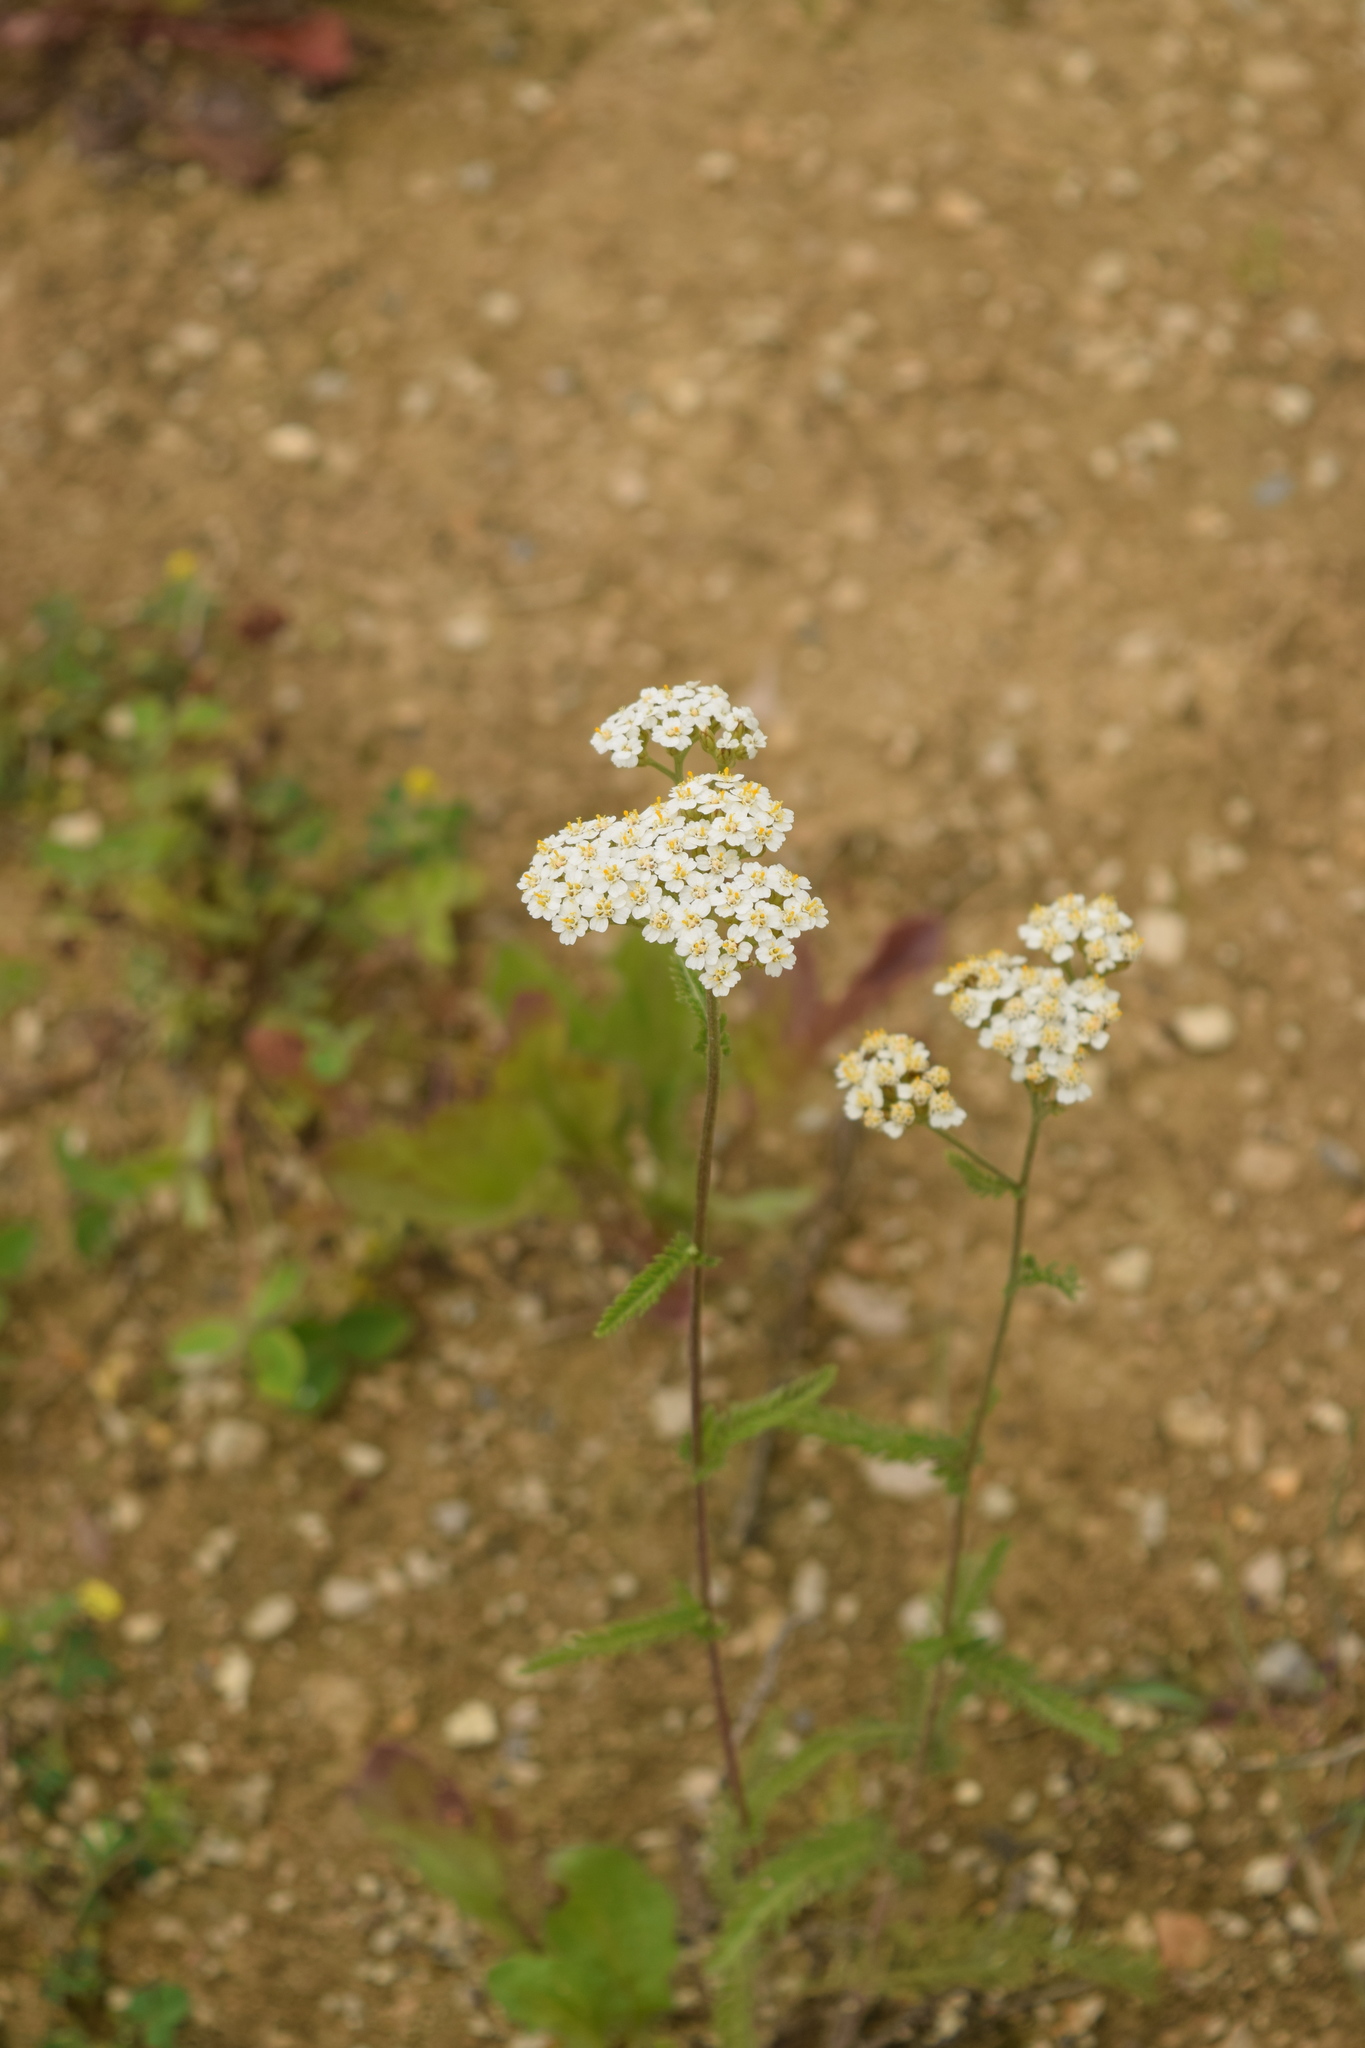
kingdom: Plantae
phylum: Tracheophyta
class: Magnoliopsida
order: Asterales
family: Asteraceae
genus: Achillea
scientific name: Achillea millefolium
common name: Yarrow
